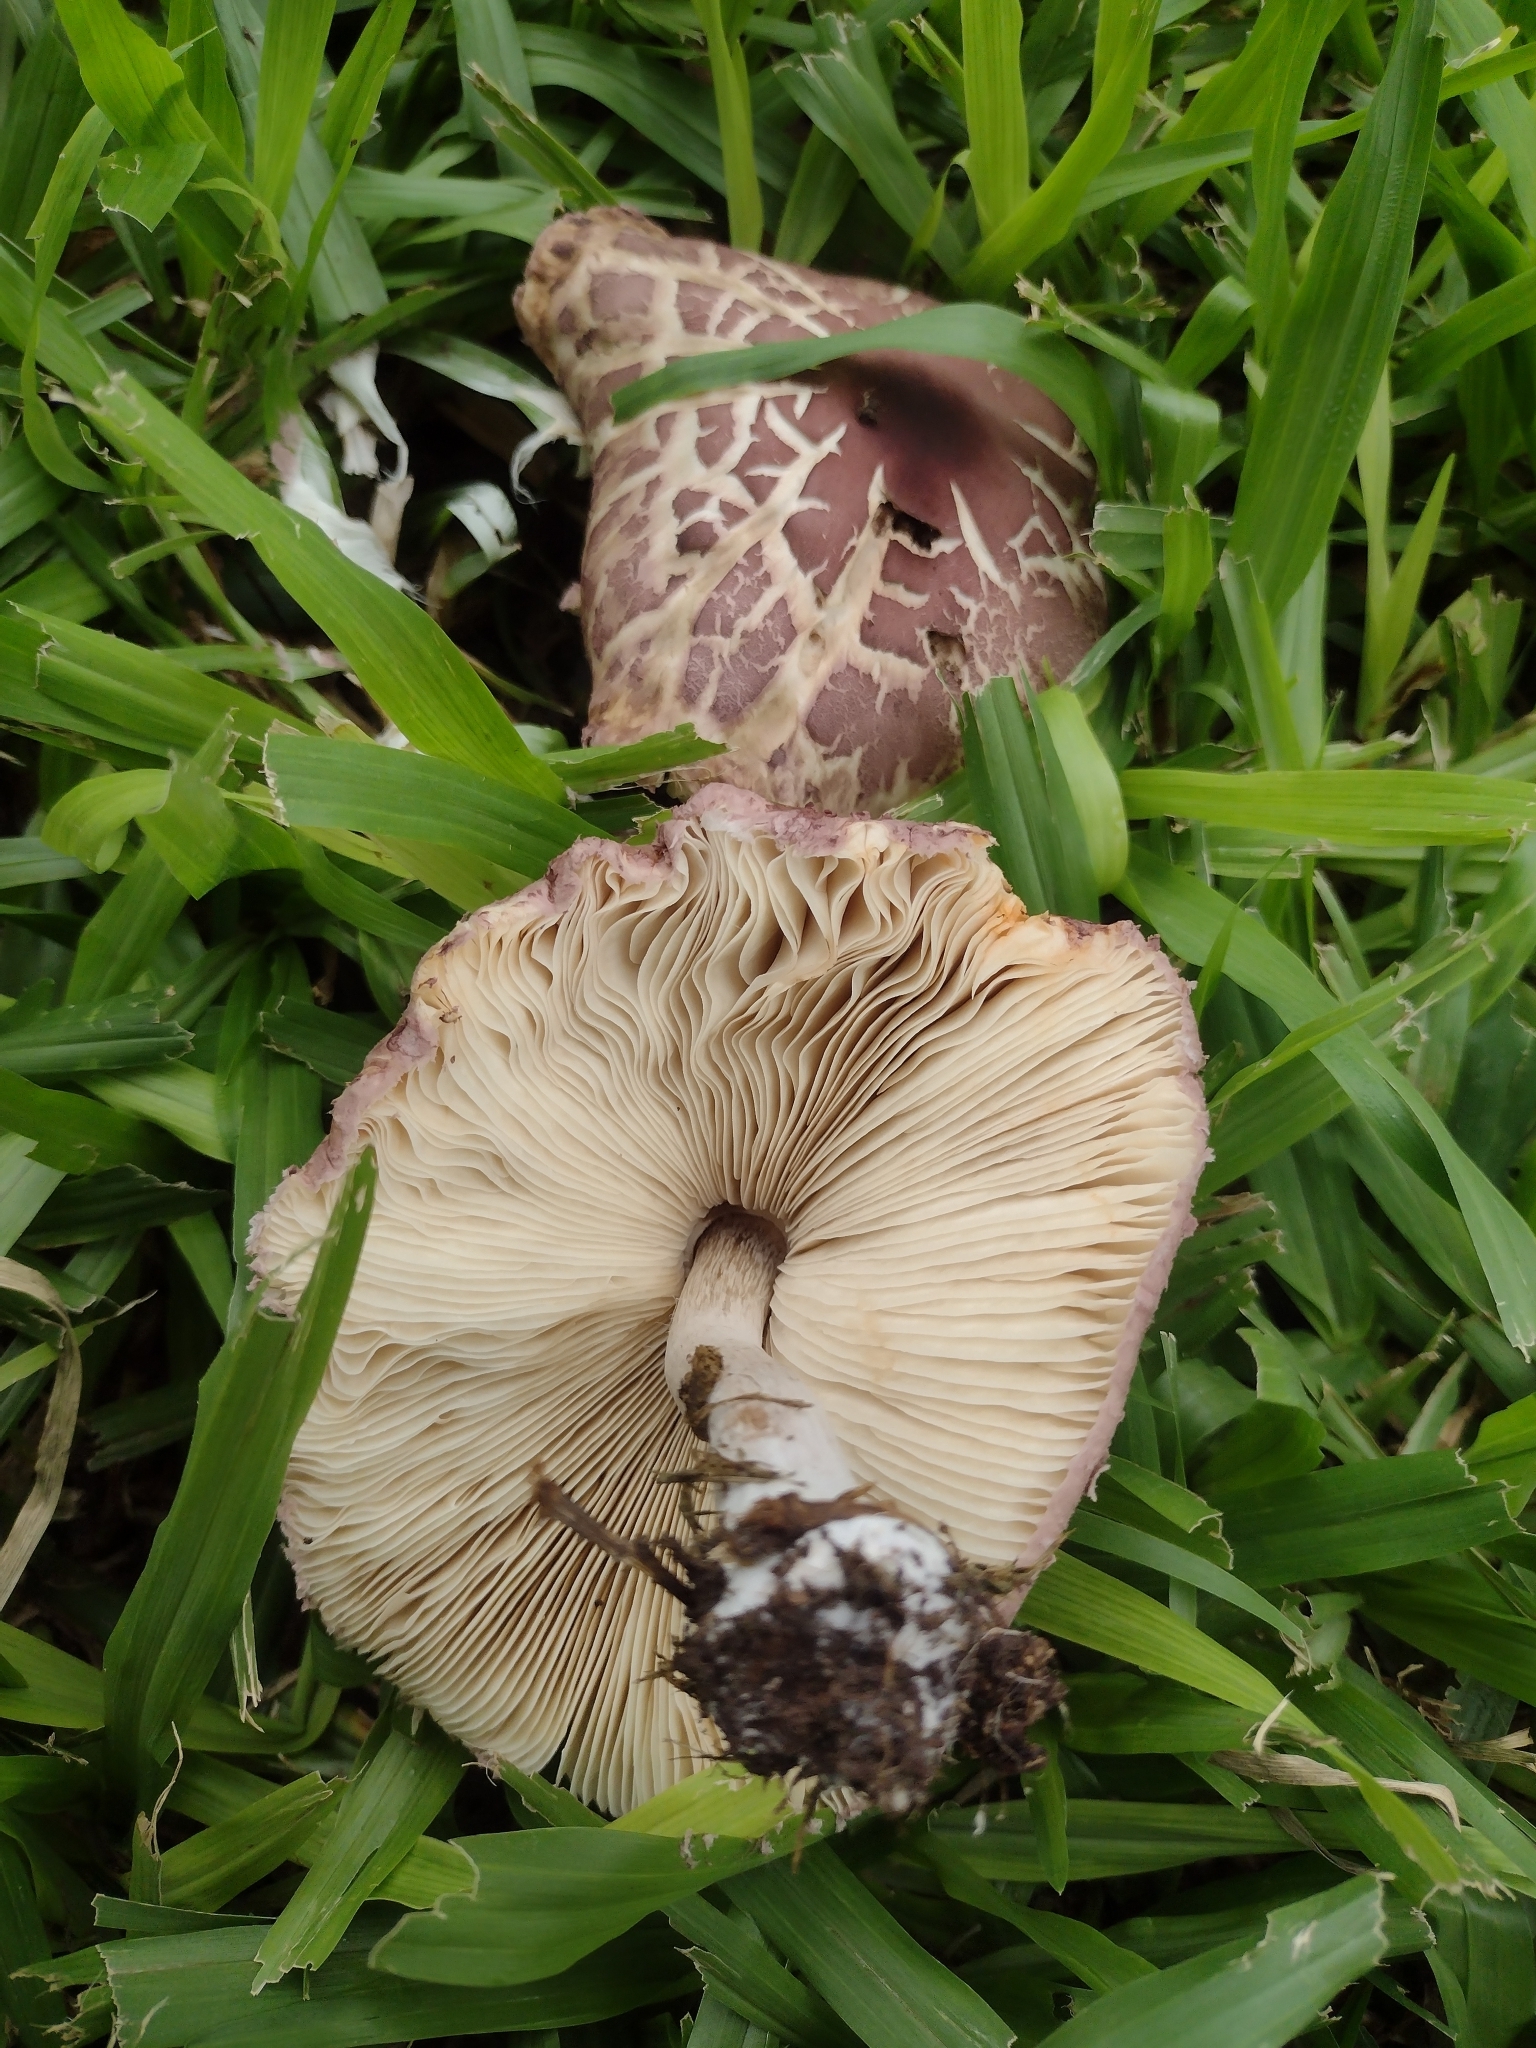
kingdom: Fungi
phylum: Basidiomycota
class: Agaricomycetes
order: Agaricales
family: Agaricaceae
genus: Leucoagaricus
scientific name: Leucoagaricus lilaceus
